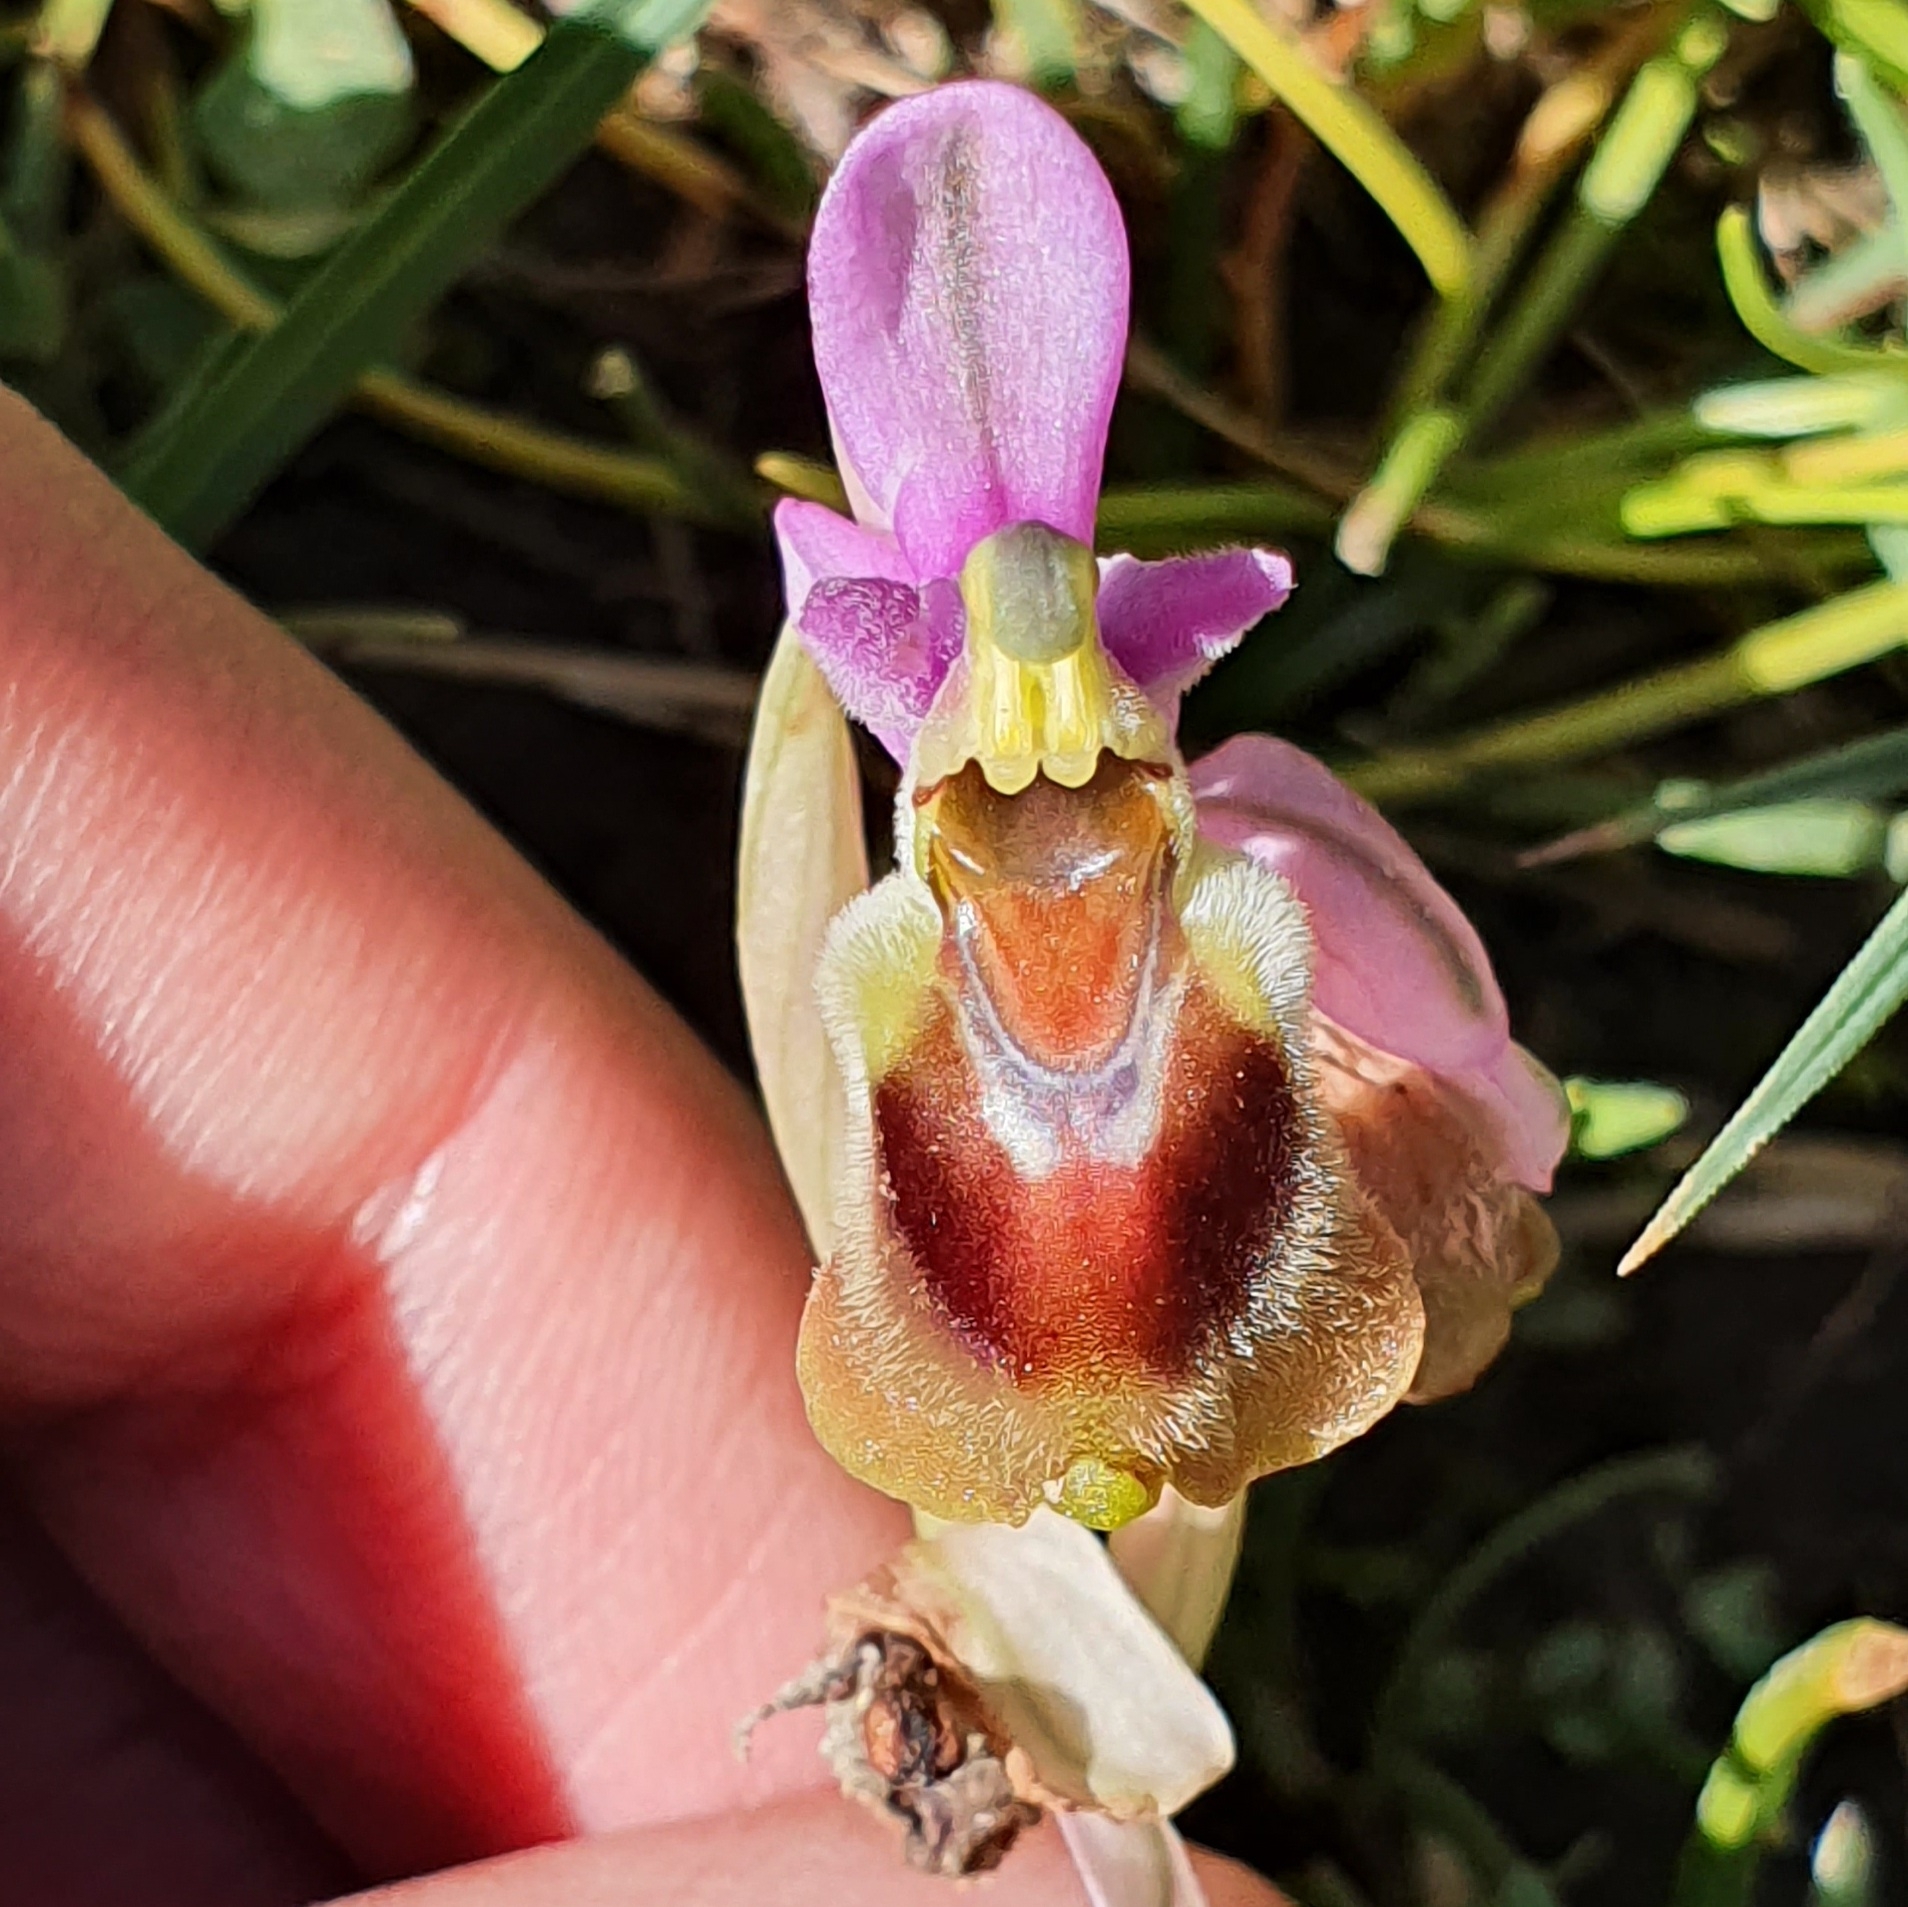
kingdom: Plantae
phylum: Tracheophyta
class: Liliopsida
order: Asparagales
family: Orchidaceae
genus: Ophrys
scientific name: Ophrys tenthredinifera
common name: Sawfly orchid
